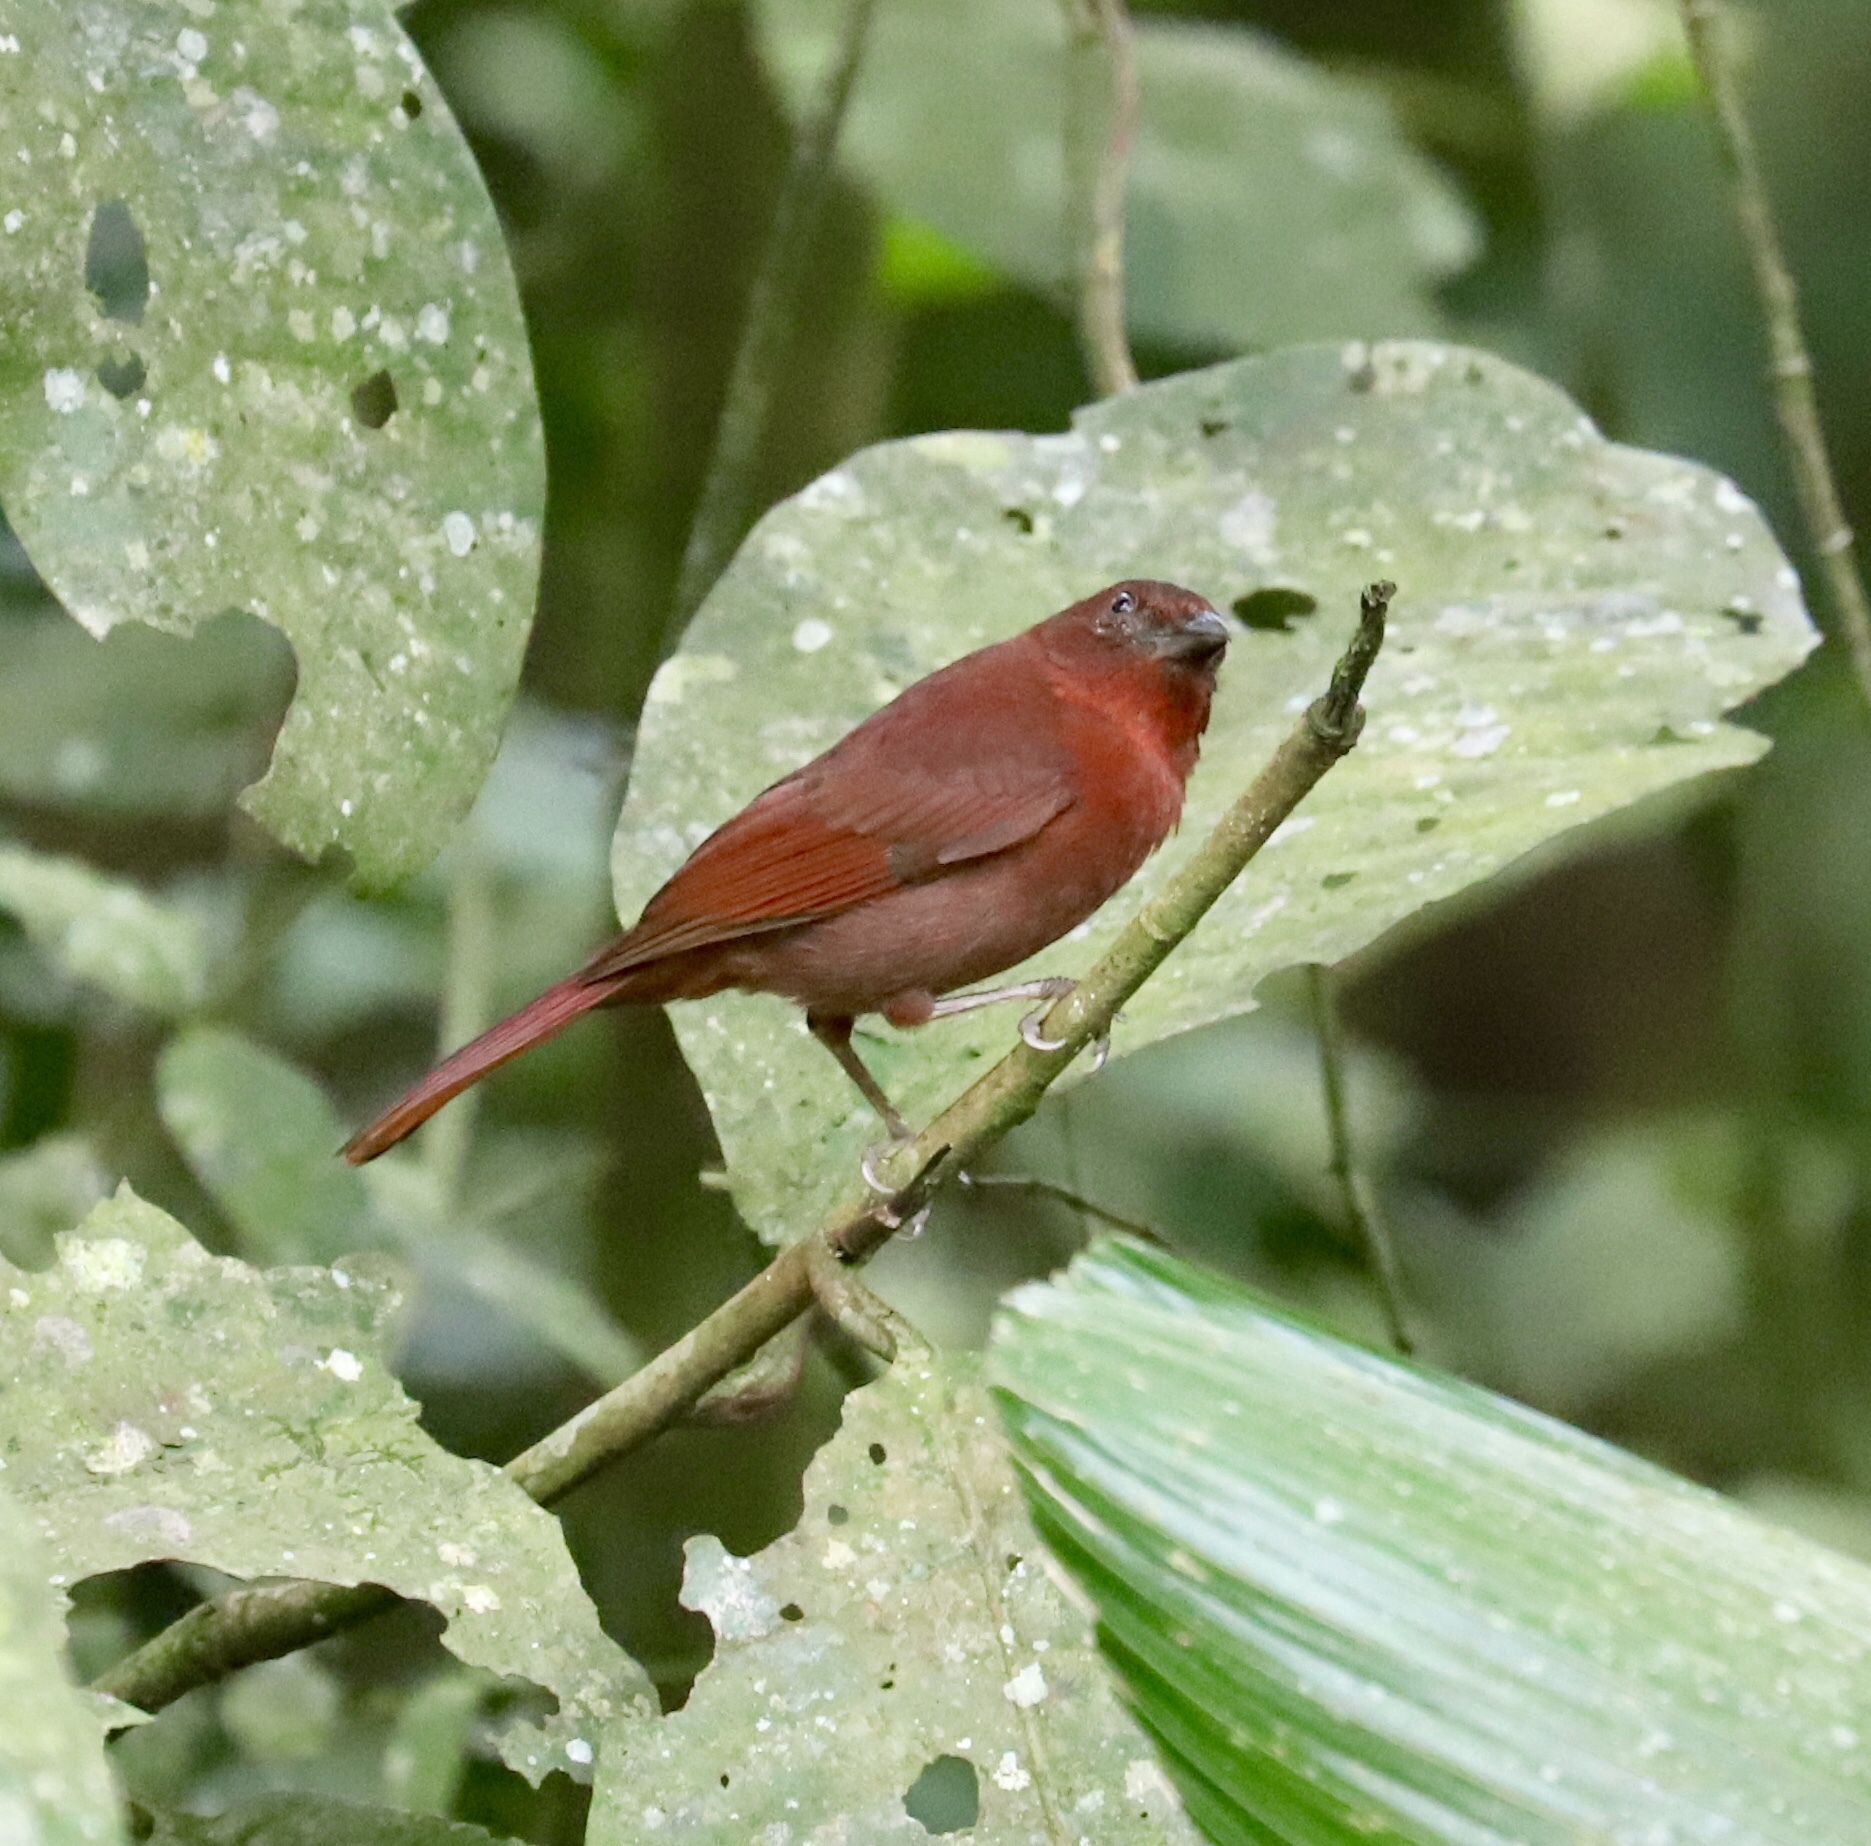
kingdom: Animalia
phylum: Chordata
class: Aves
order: Passeriformes
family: Cardinalidae
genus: Habia
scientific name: Habia fuscicauda
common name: Red-throated ant-tanager
